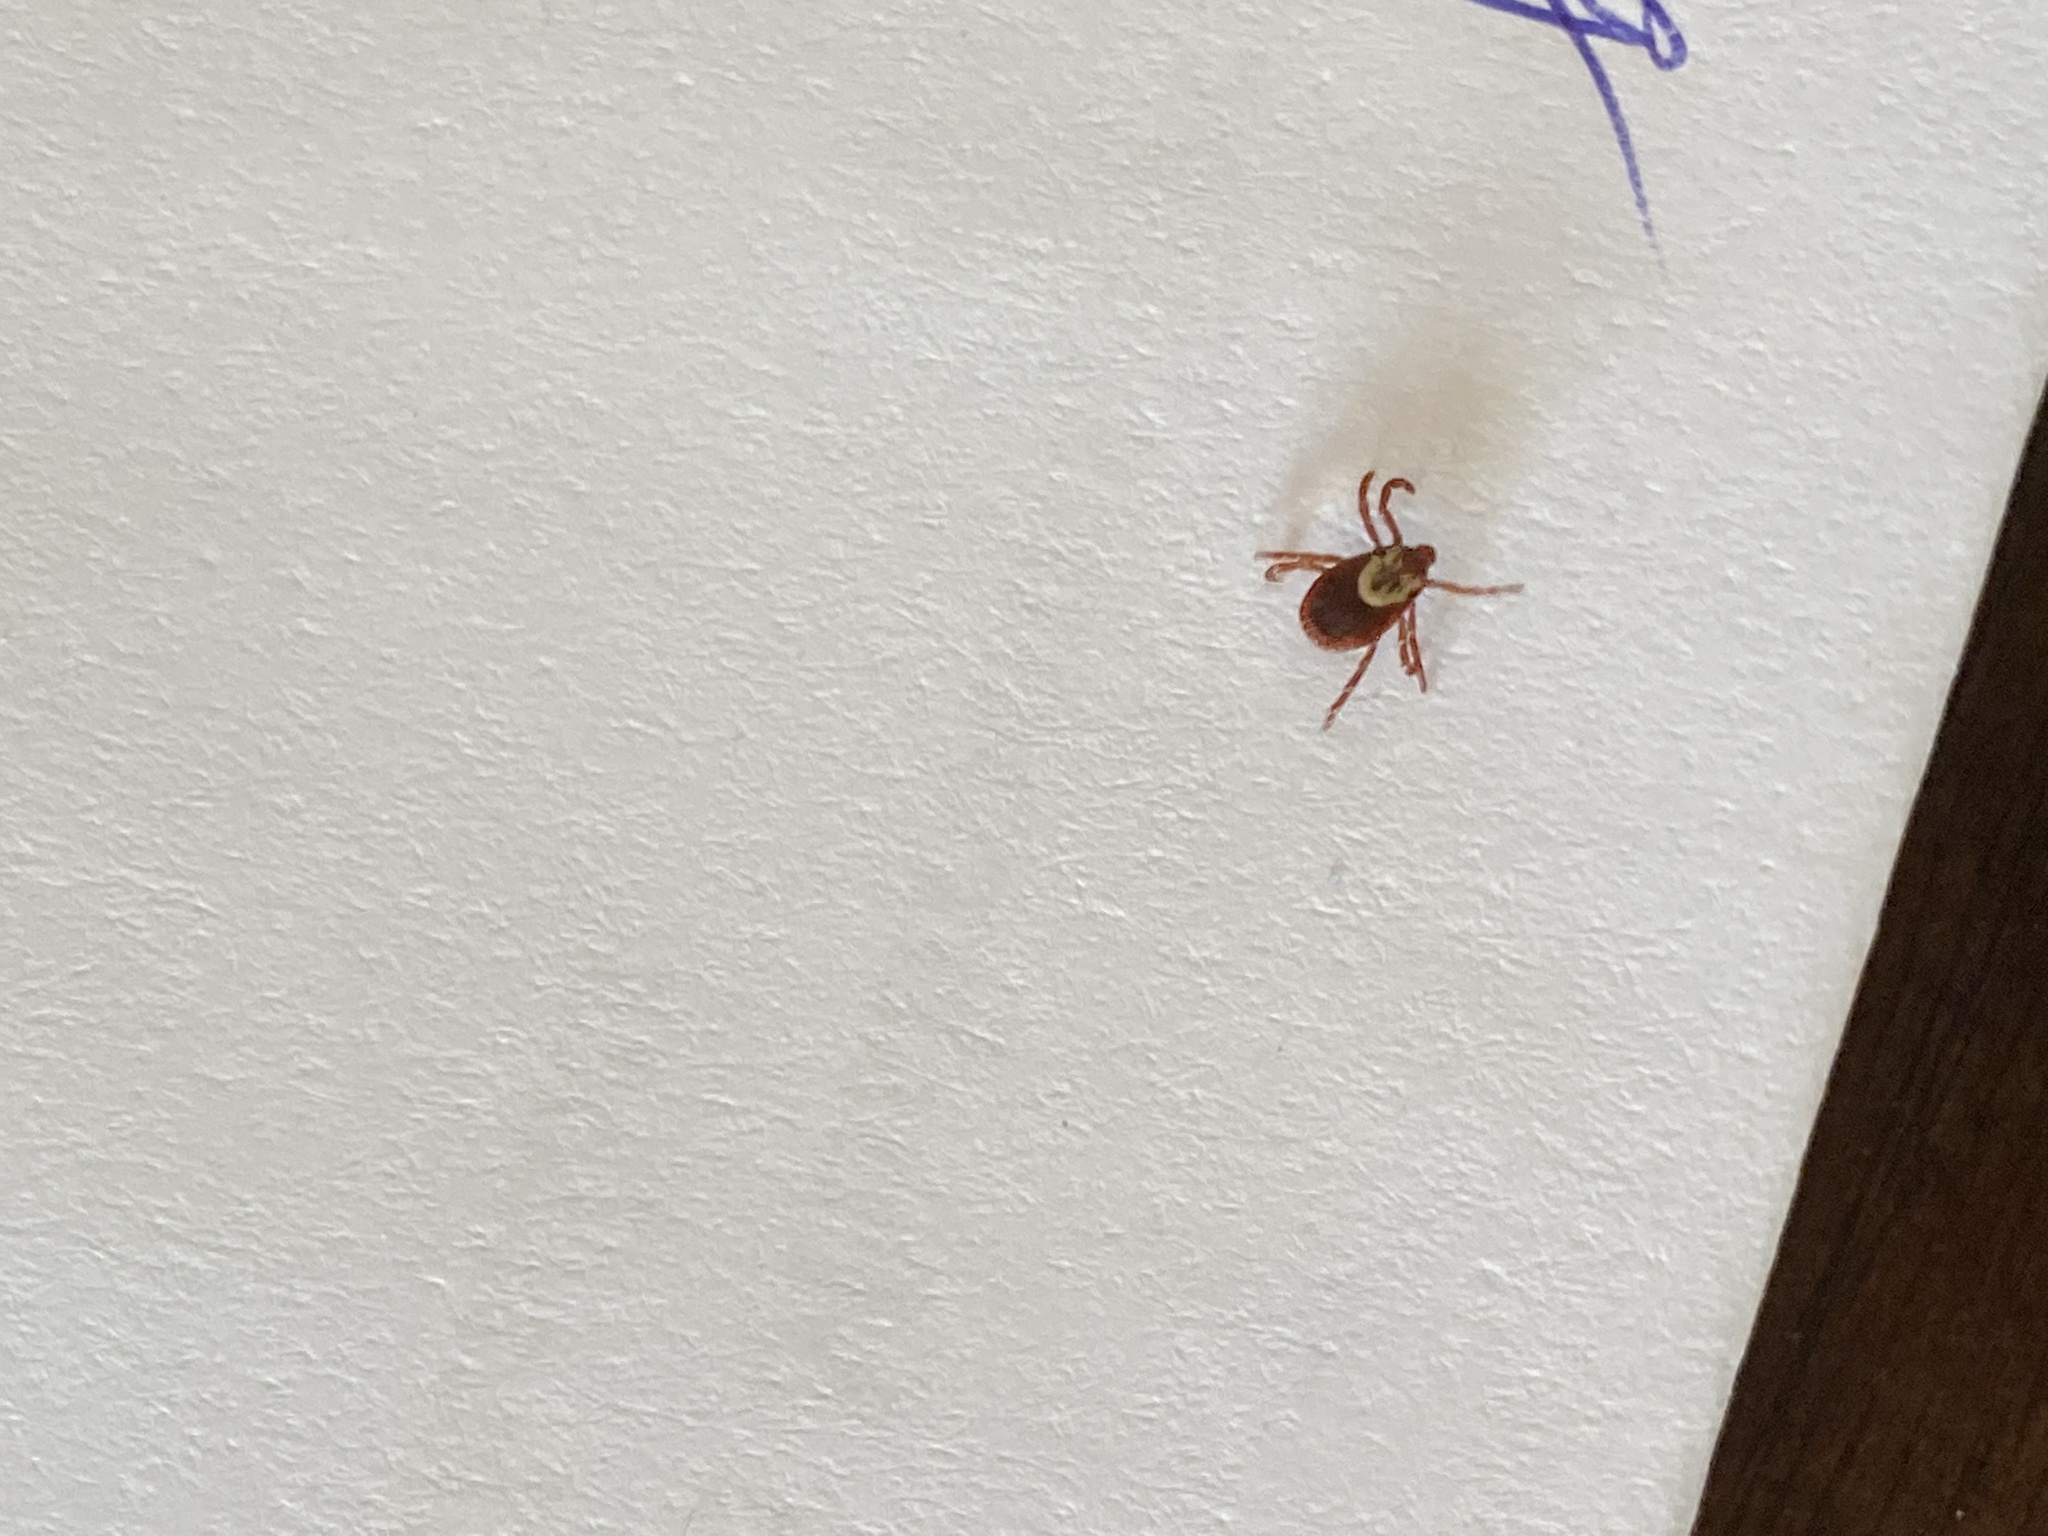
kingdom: Animalia
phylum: Arthropoda
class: Arachnida
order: Ixodida
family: Ixodidae
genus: Dermacentor
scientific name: Dermacentor variabilis
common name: American dog tick
